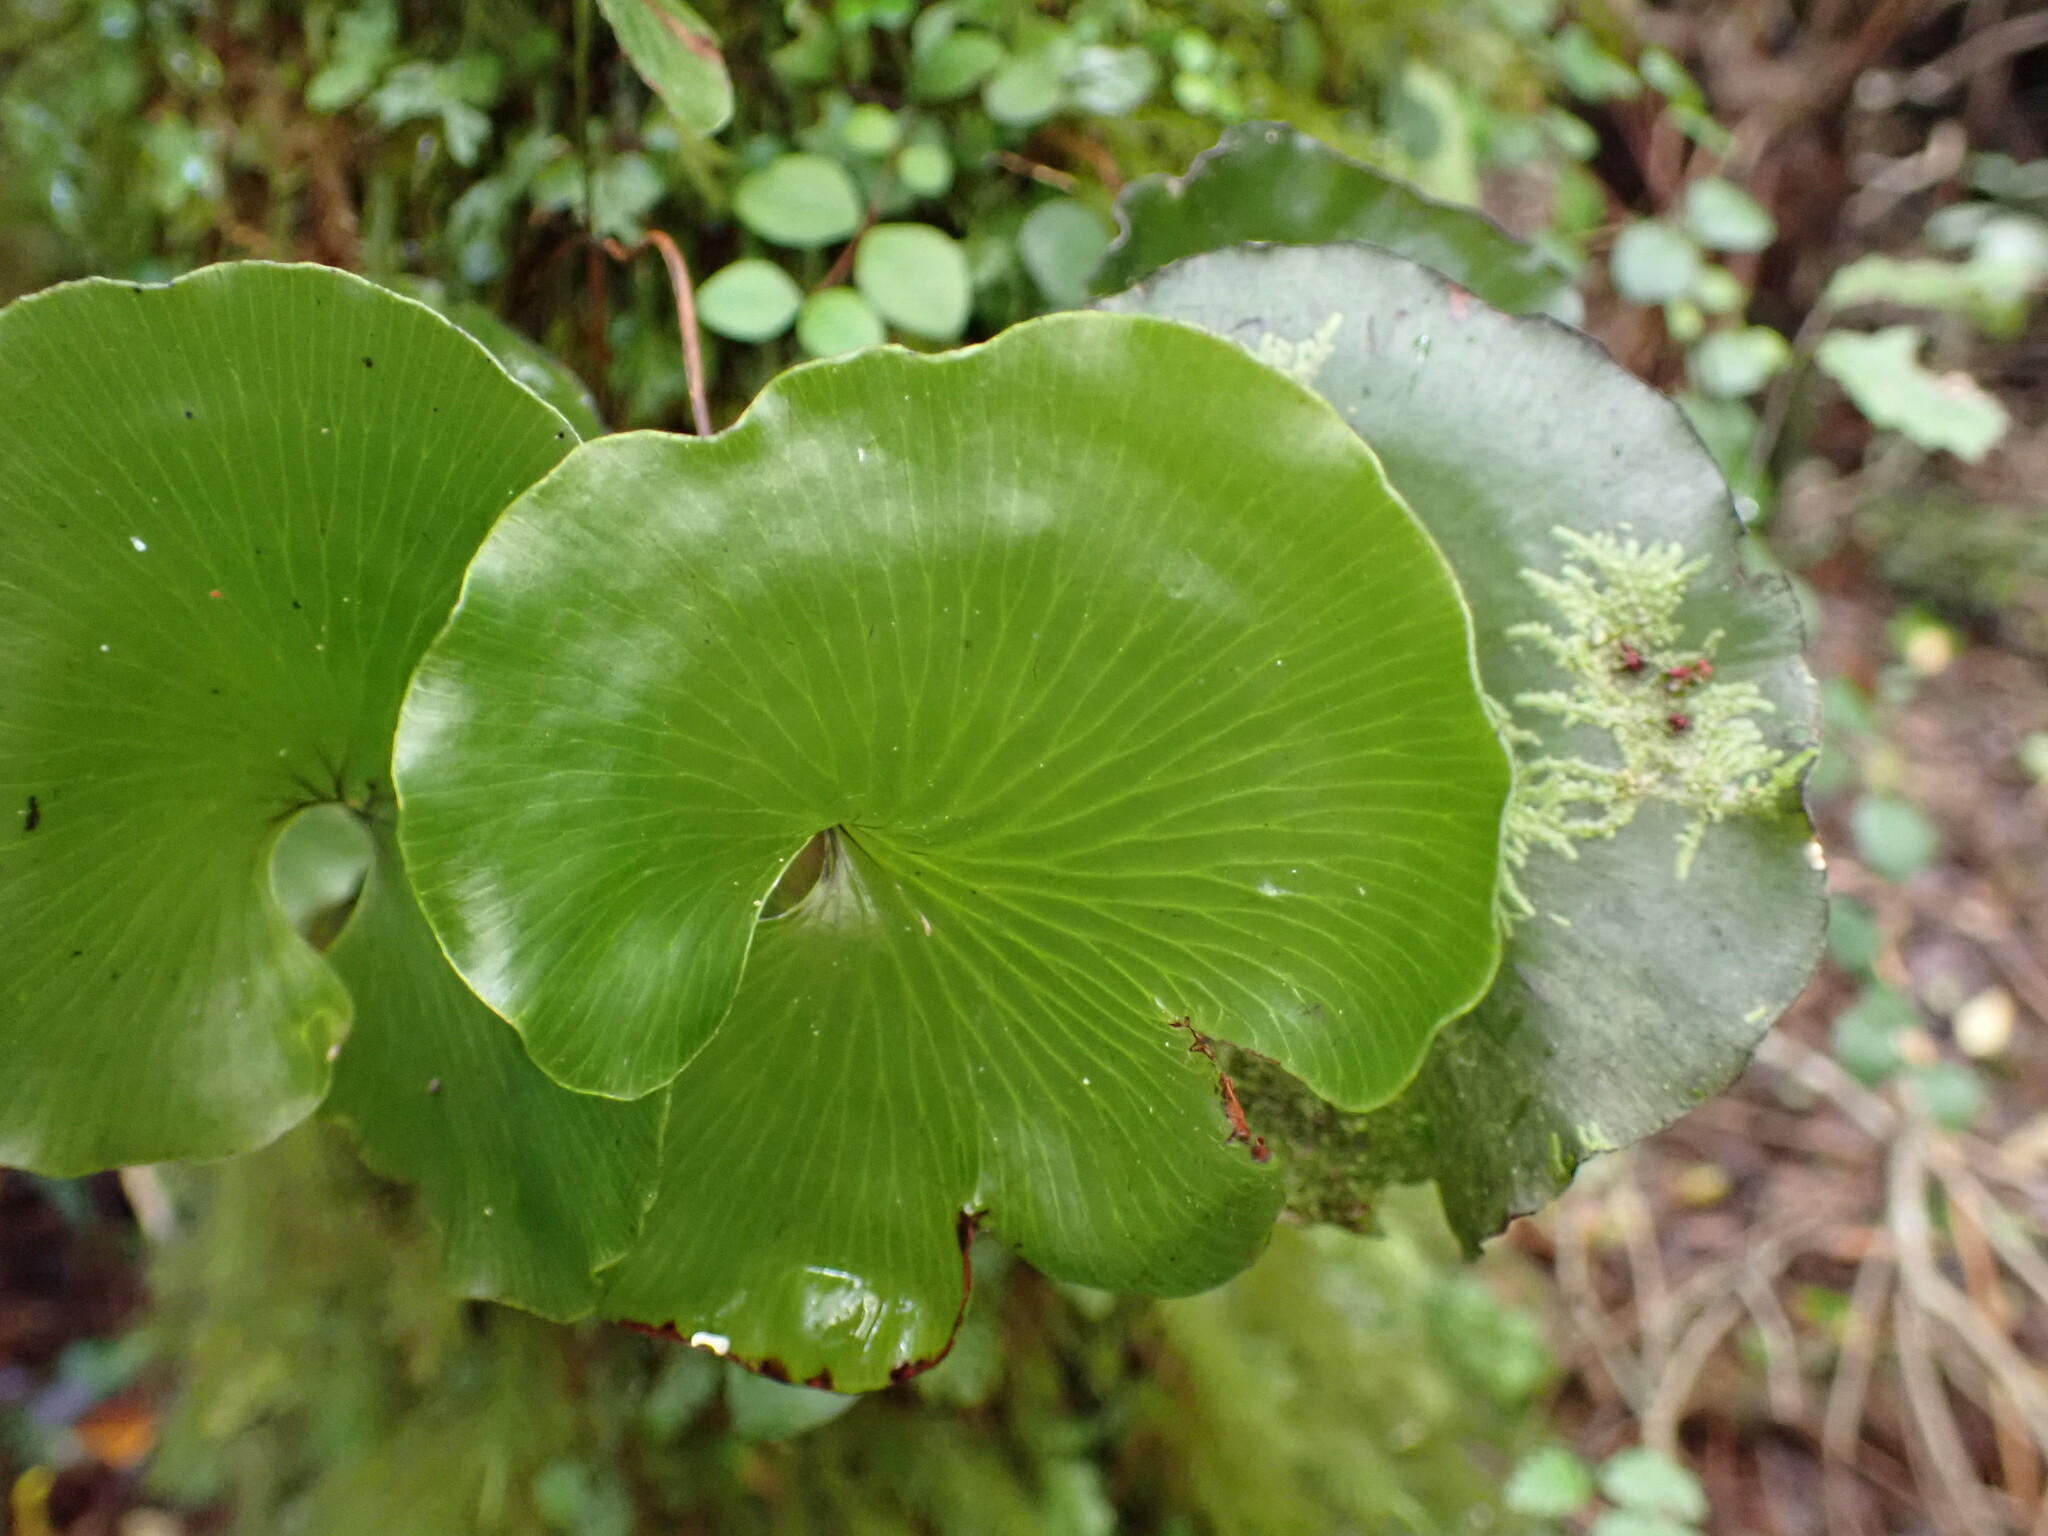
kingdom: Plantae
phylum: Tracheophyta
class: Polypodiopsida
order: Hymenophyllales
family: Hymenophyllaceae
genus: Hymenophyllum
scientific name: Hymenophyllum nephrophyllum
